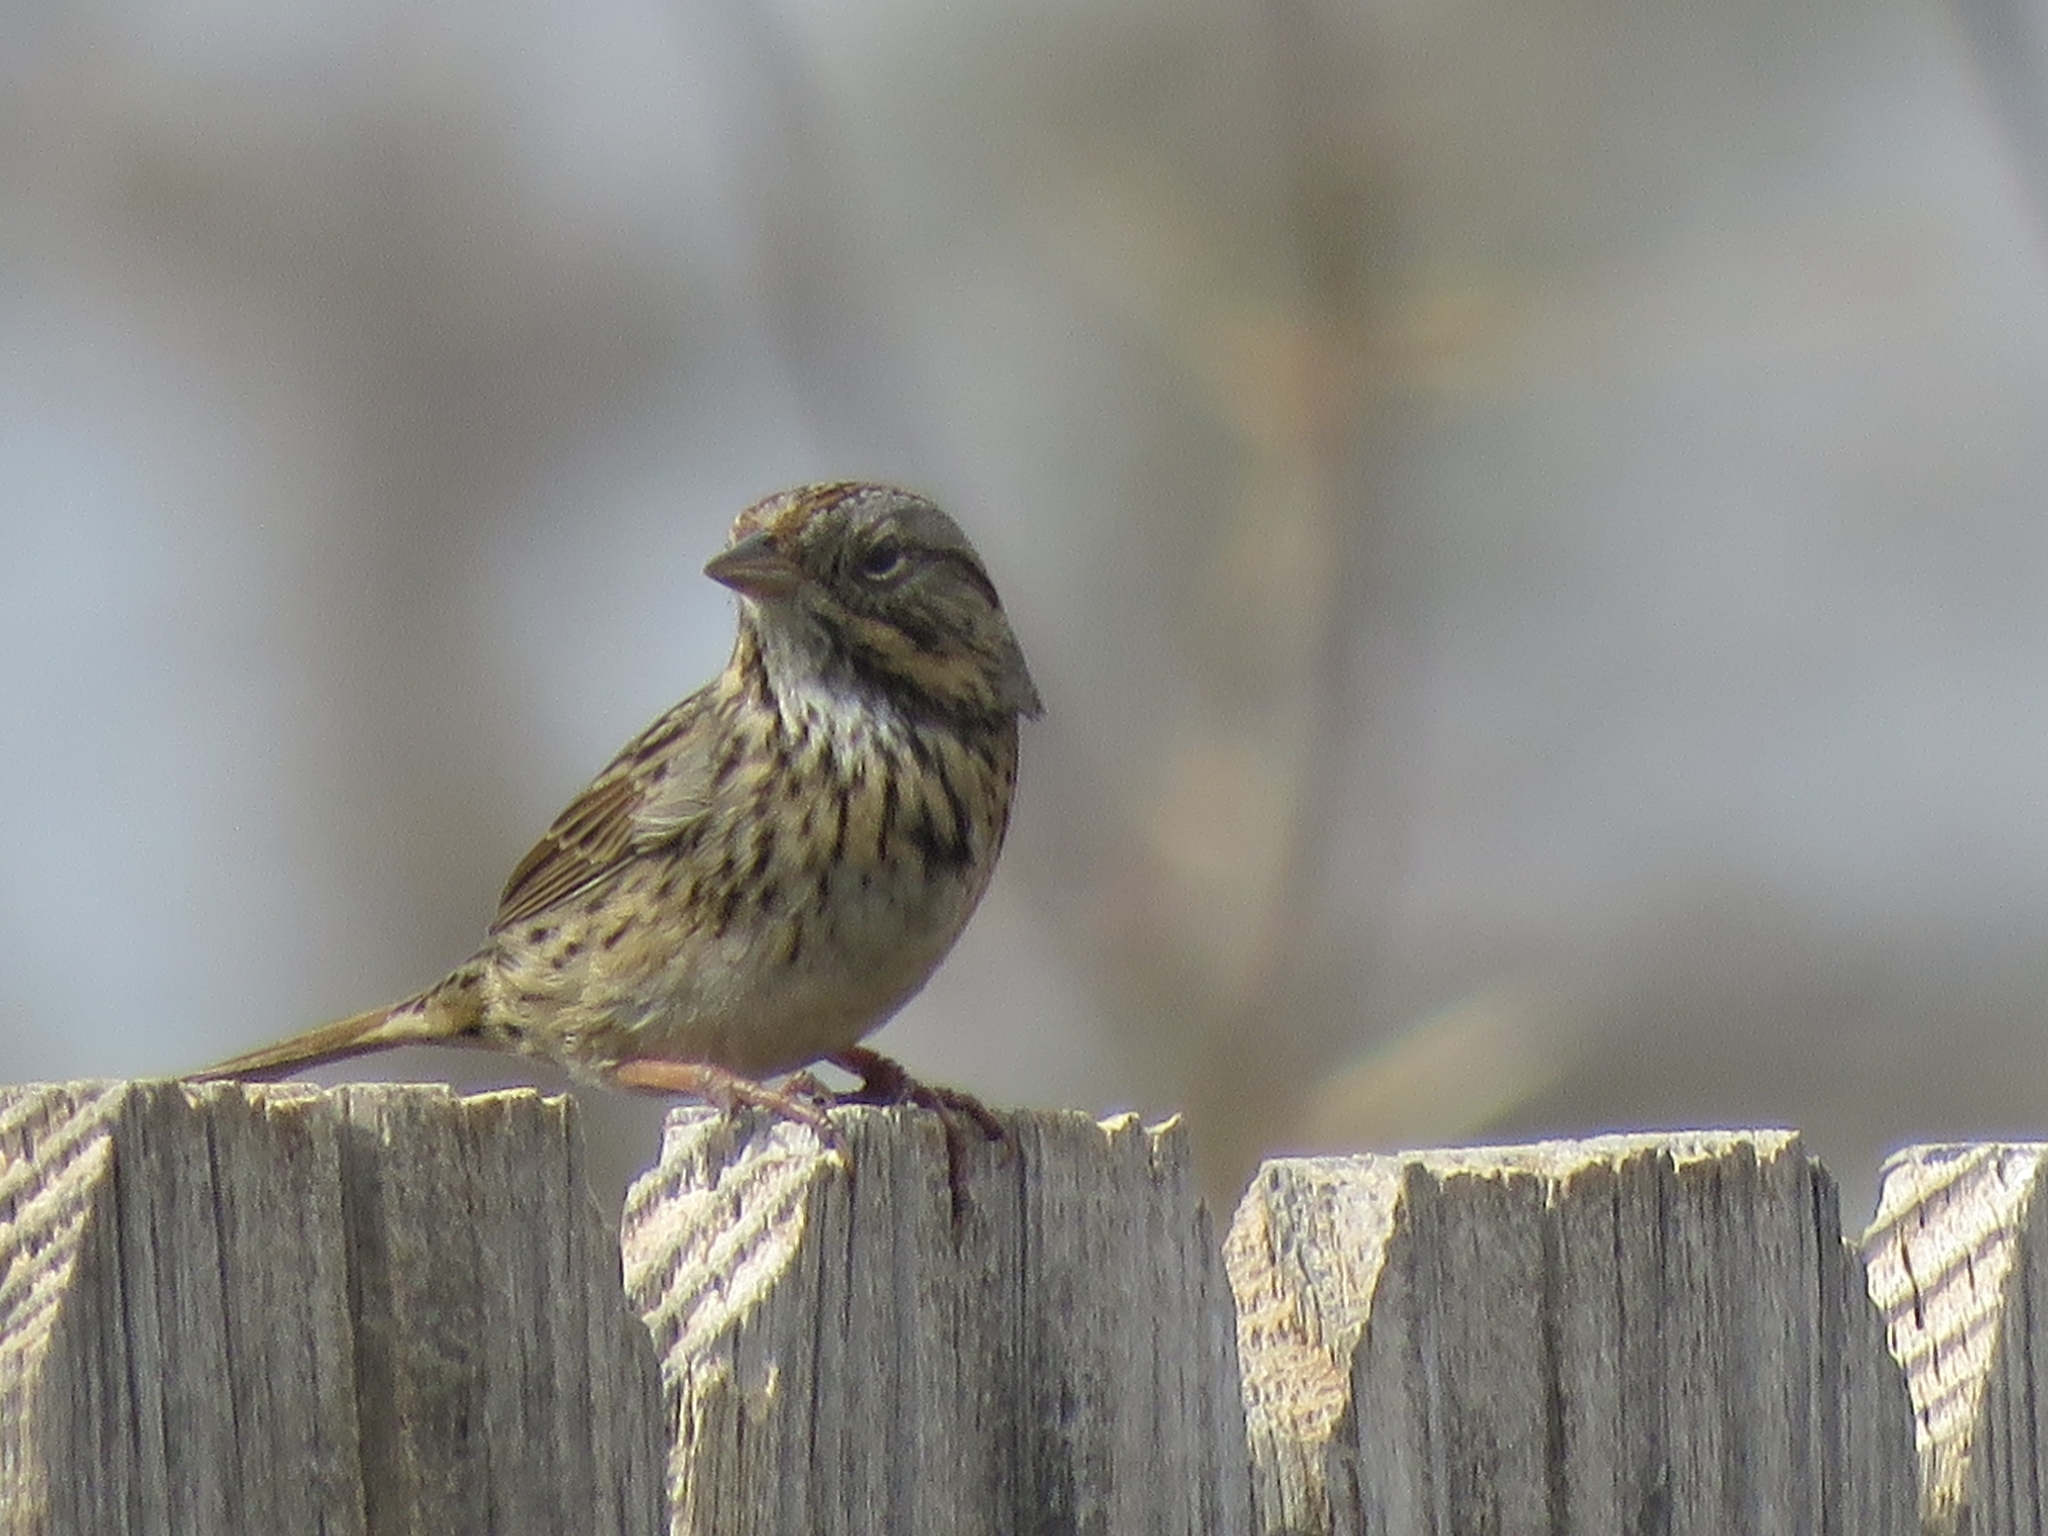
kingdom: Animalia
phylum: Chordata
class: Aves
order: Passeriformes
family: Passerellidae
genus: Melospiza
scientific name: Melospiza lincolnii
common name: Lincoln's sparrow
